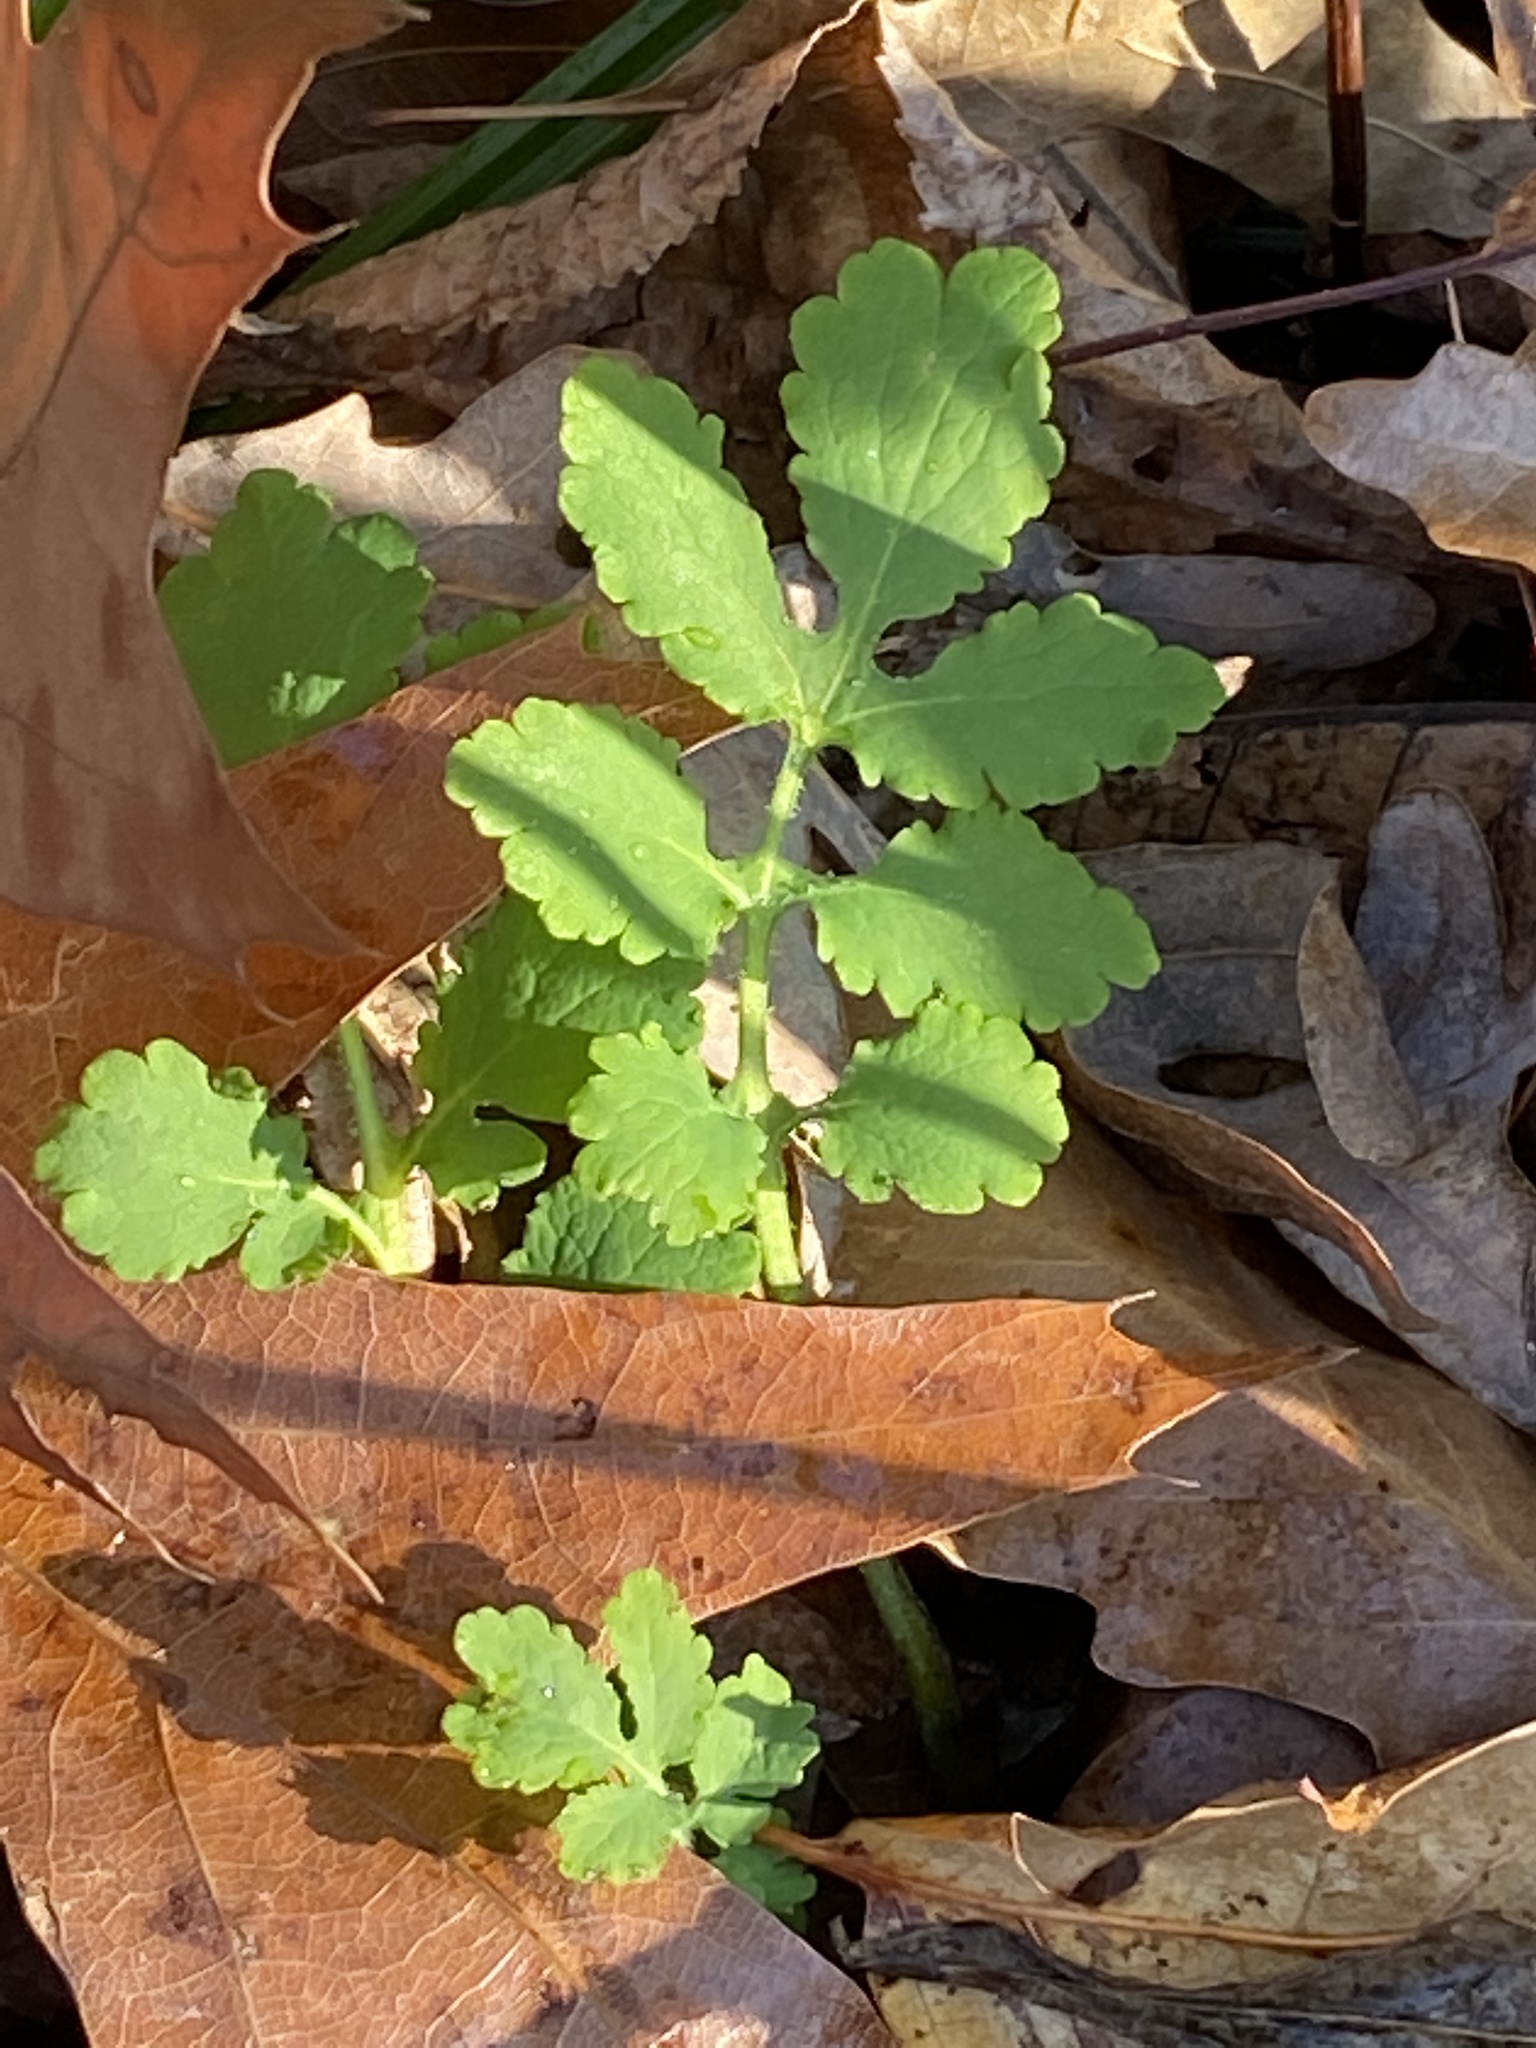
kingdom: Plantae
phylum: Tracheophyta
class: Magnoliopsida
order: Ranunculales
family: Papaveraceae
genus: Chelidonium
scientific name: Chelidonium majus
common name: Greater celandine
